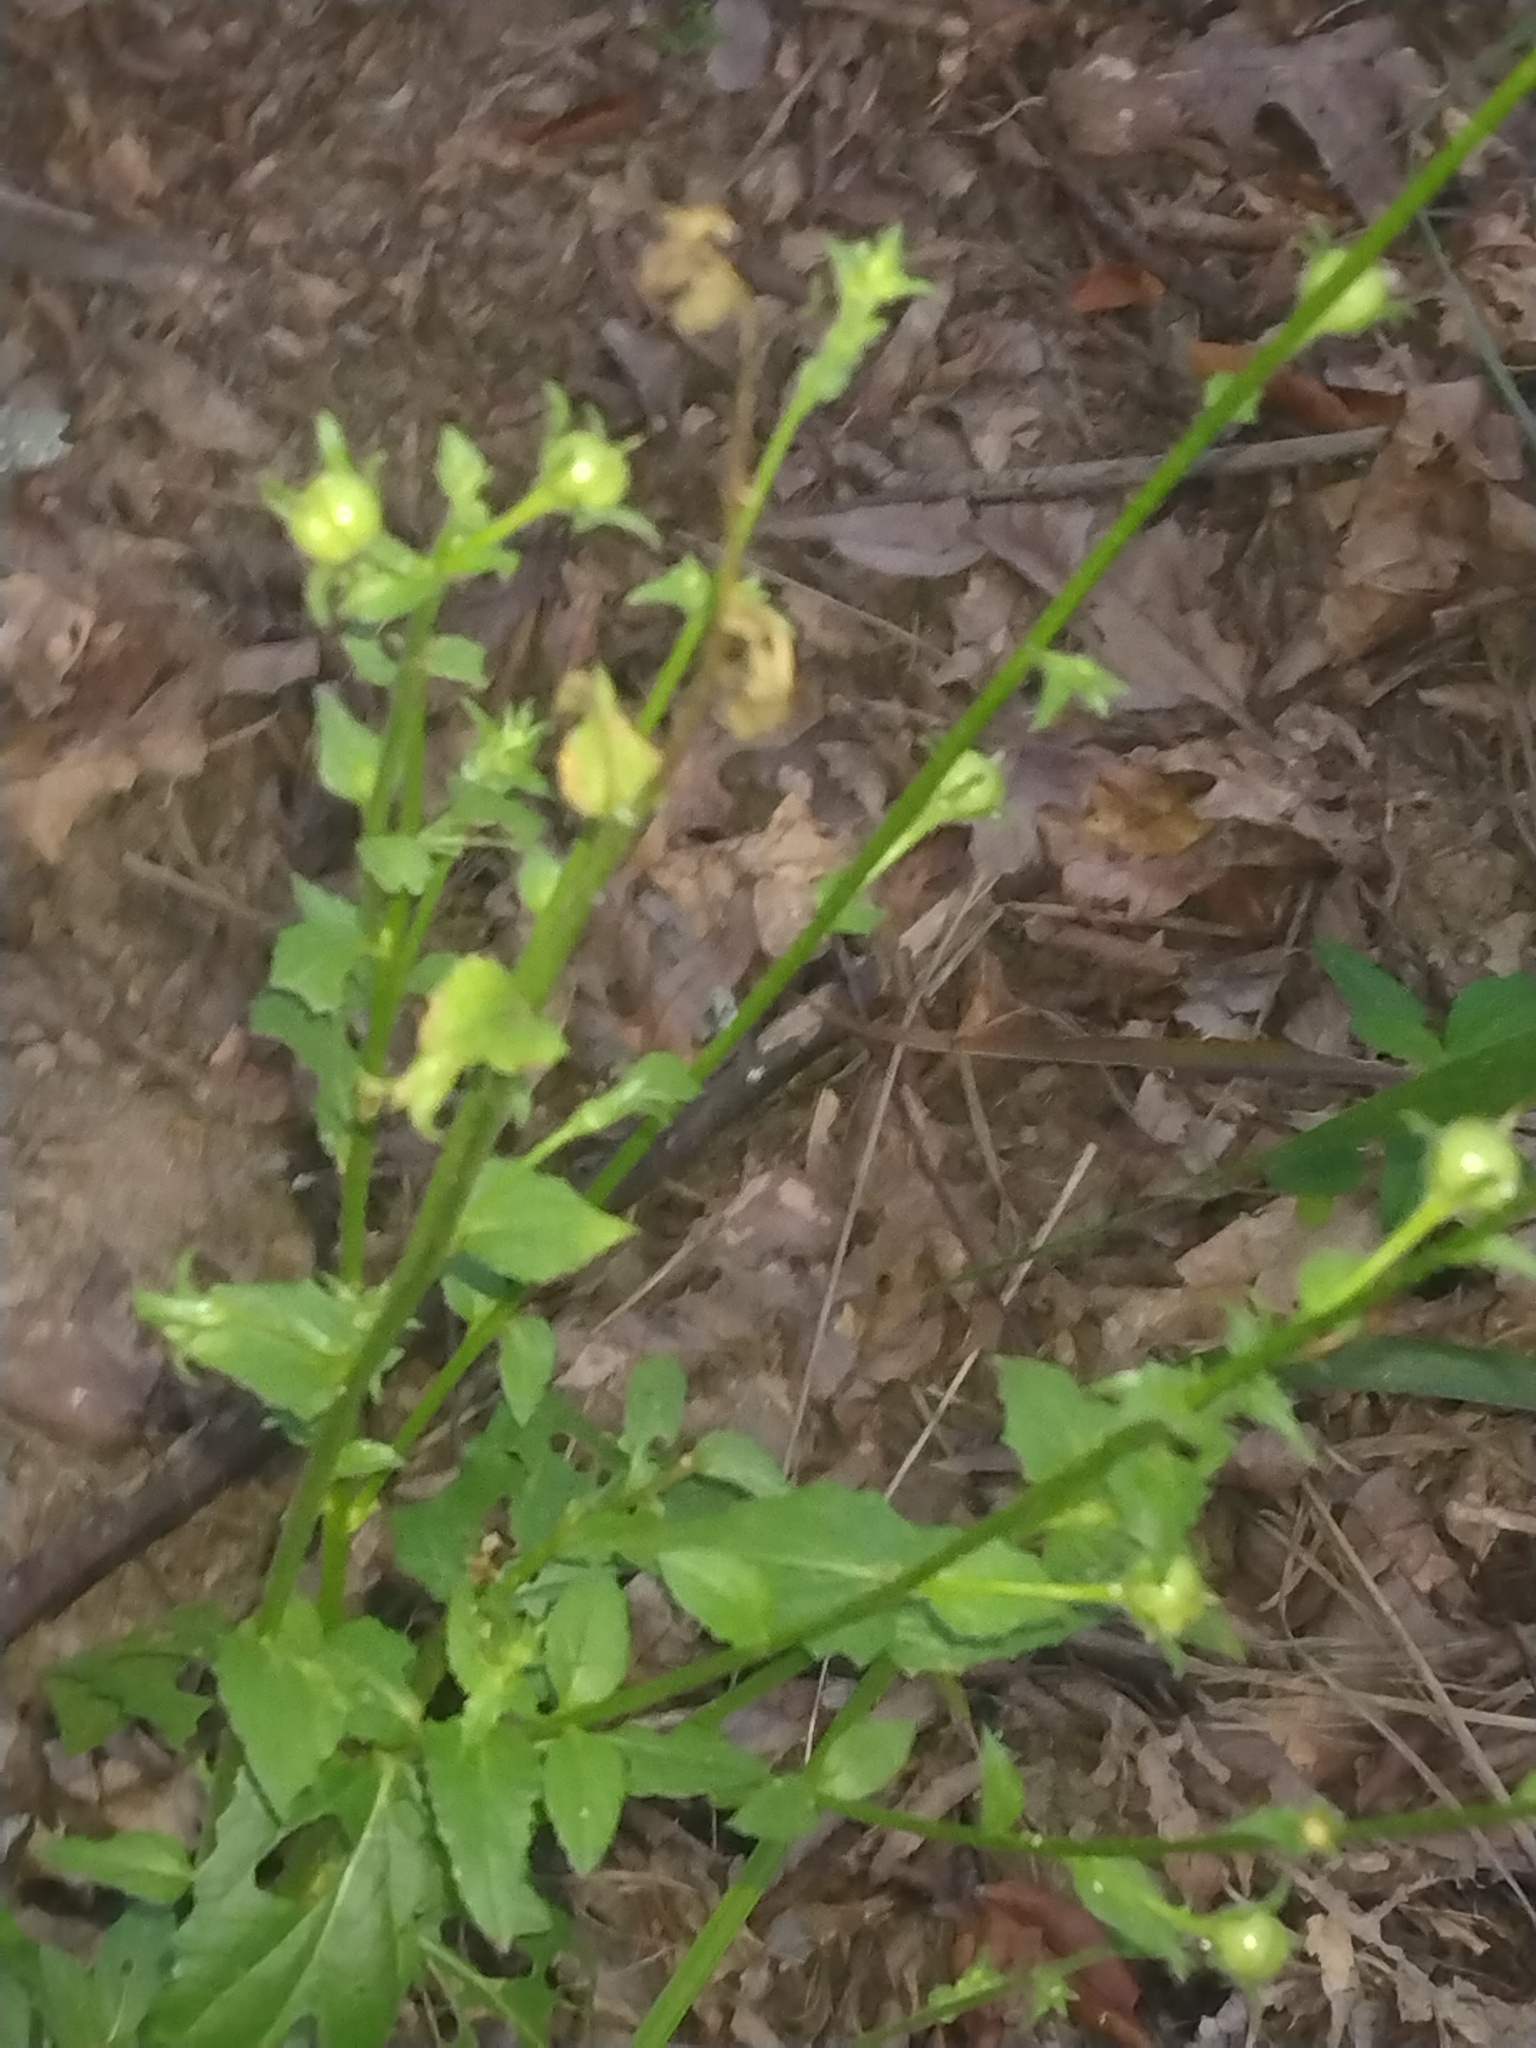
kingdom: Plantae
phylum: Tracheophyta
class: Magnoliopsida
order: Lamiales
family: Scrophulariaceae
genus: Verbascum
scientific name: Verbascum blattaria
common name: Moth mullein
